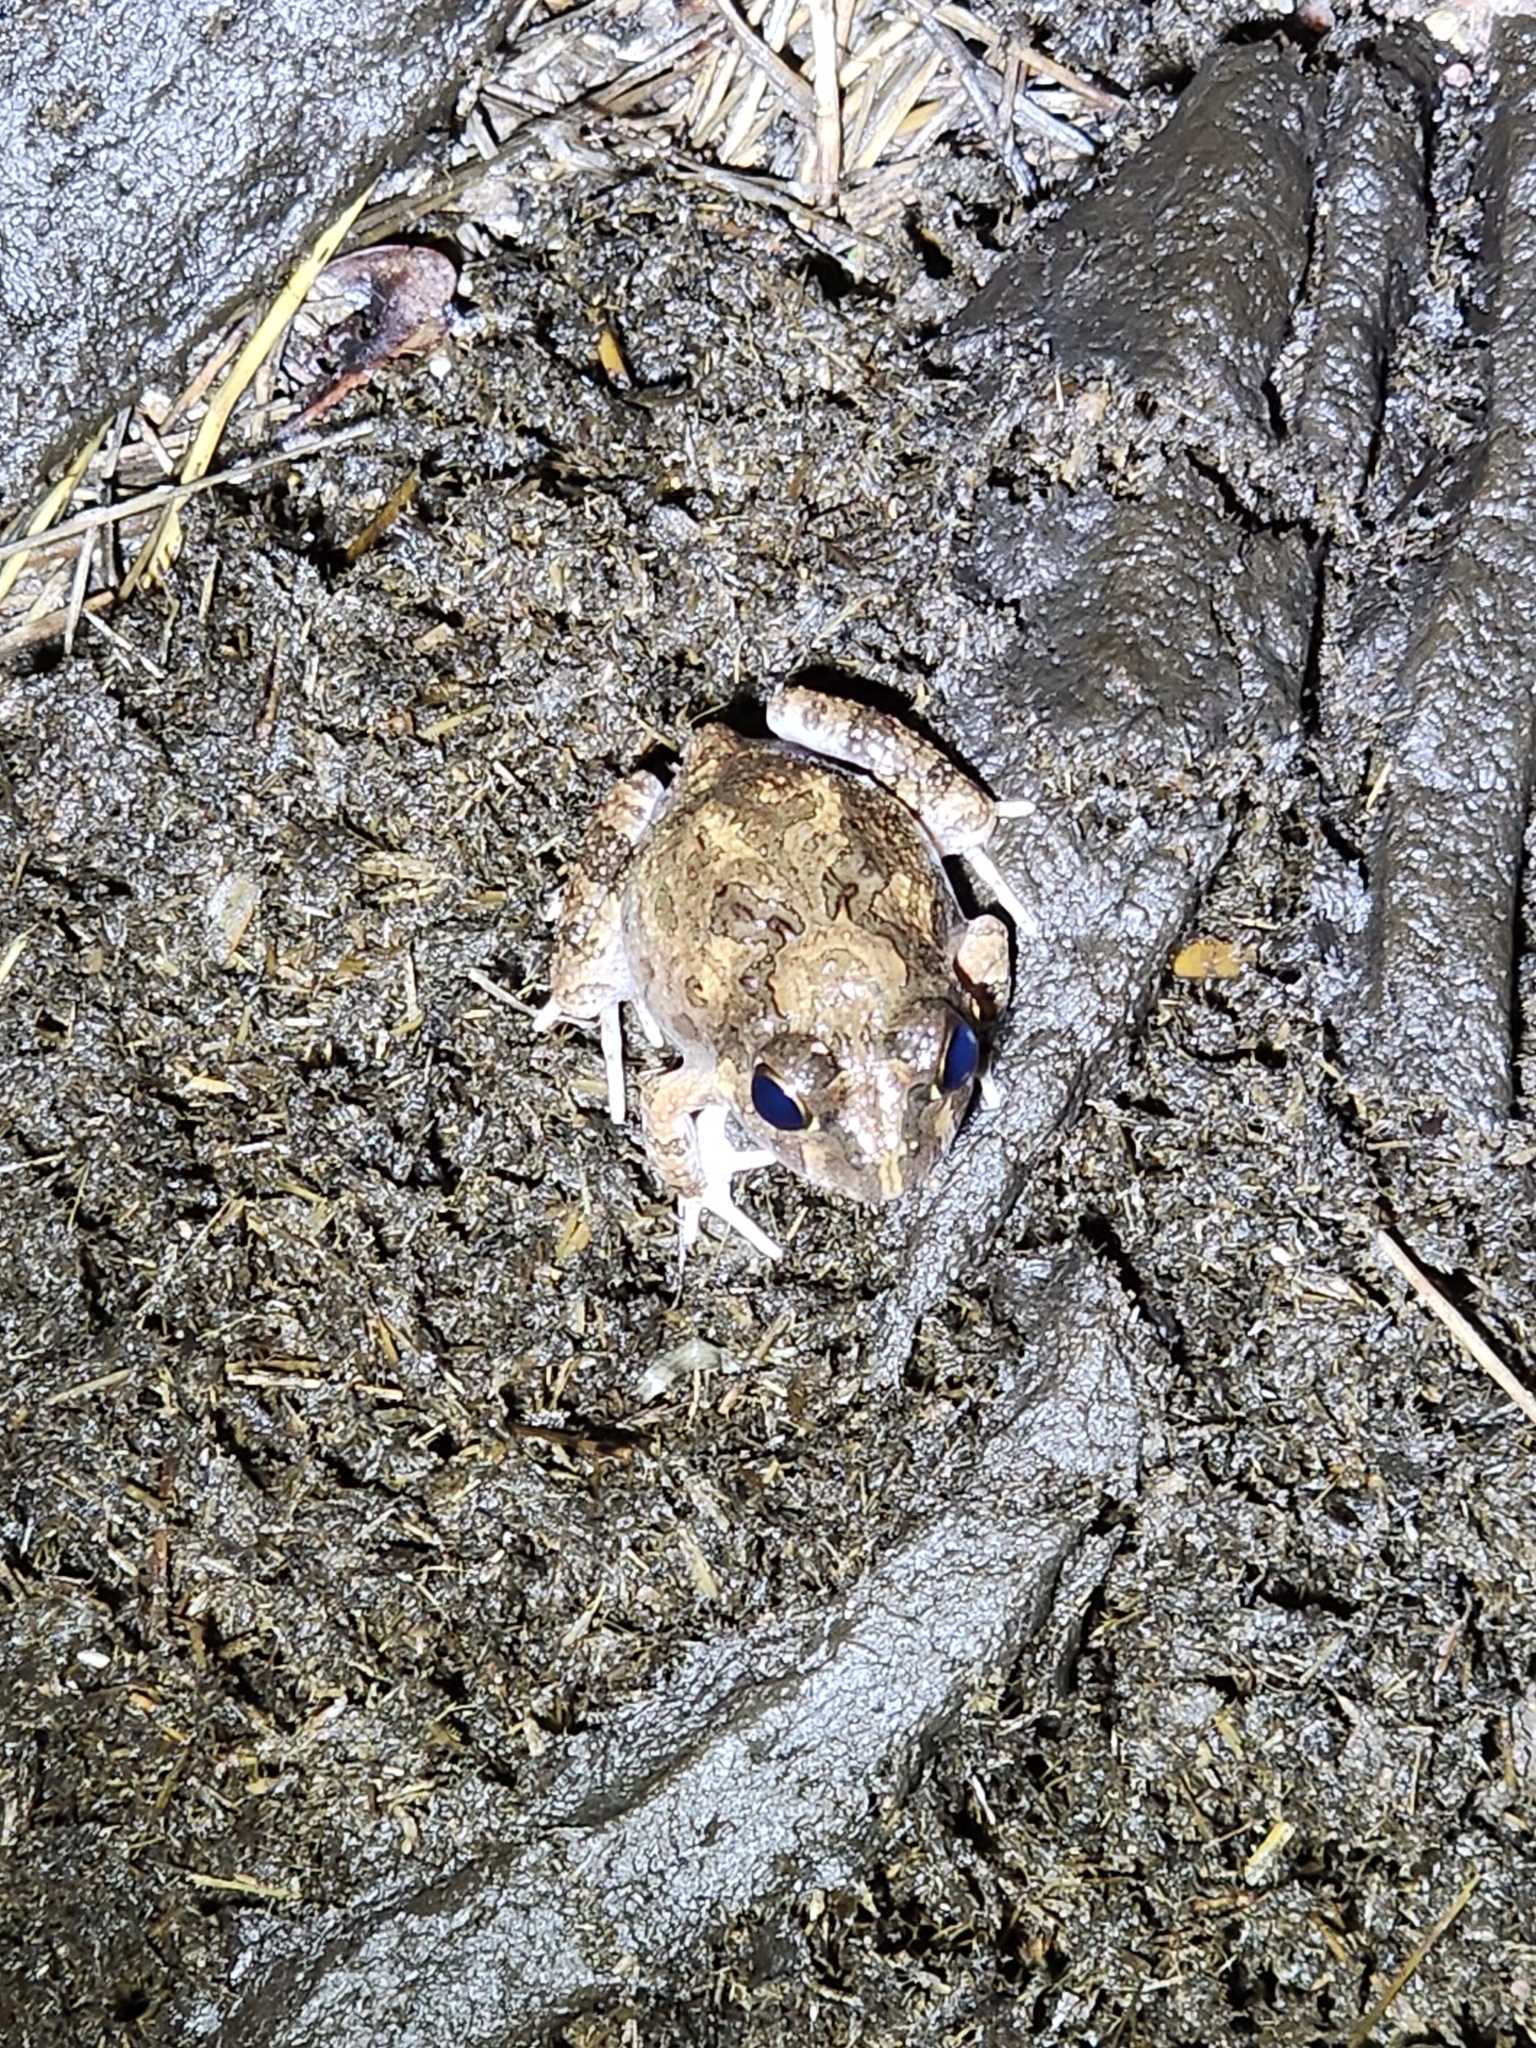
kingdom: Animalia
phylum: Chordata
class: Amphibia
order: Anura
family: Limnodynastidae
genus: Platyplectrum
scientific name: Platyplectrum ornatum
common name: Ornate burrowing frog
